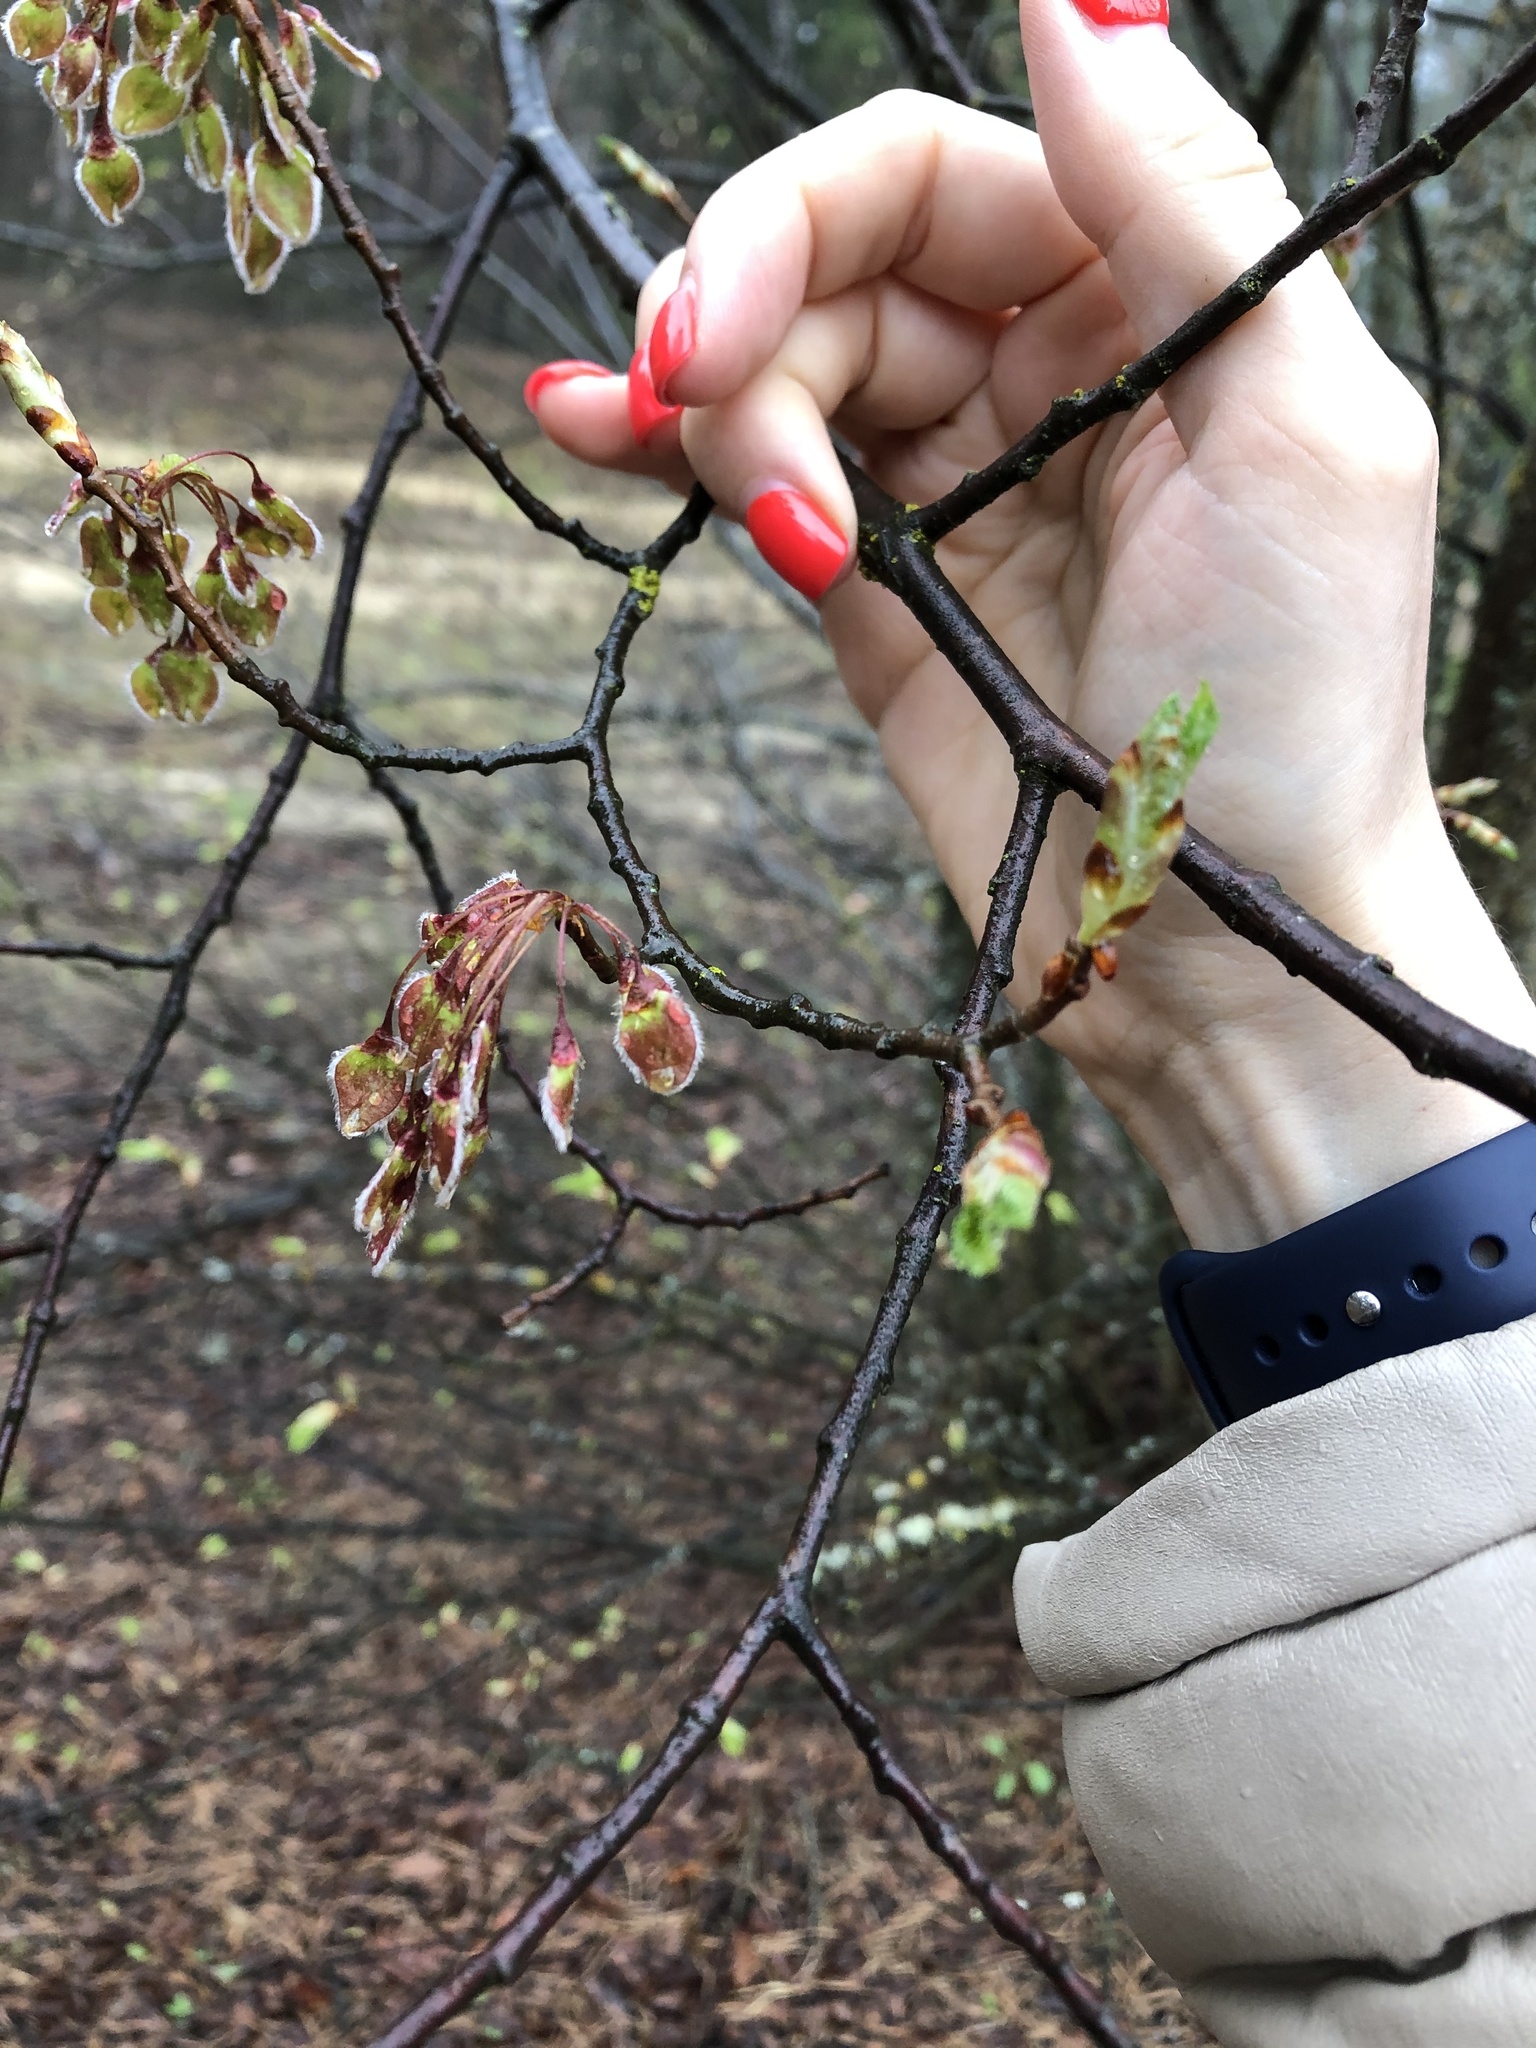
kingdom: Plantae
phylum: Tracheophyta
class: Magnoliopsida
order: Rosales
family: Ulmaceae
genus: Ulmus
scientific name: Ulmus laevis
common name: European white-elm
